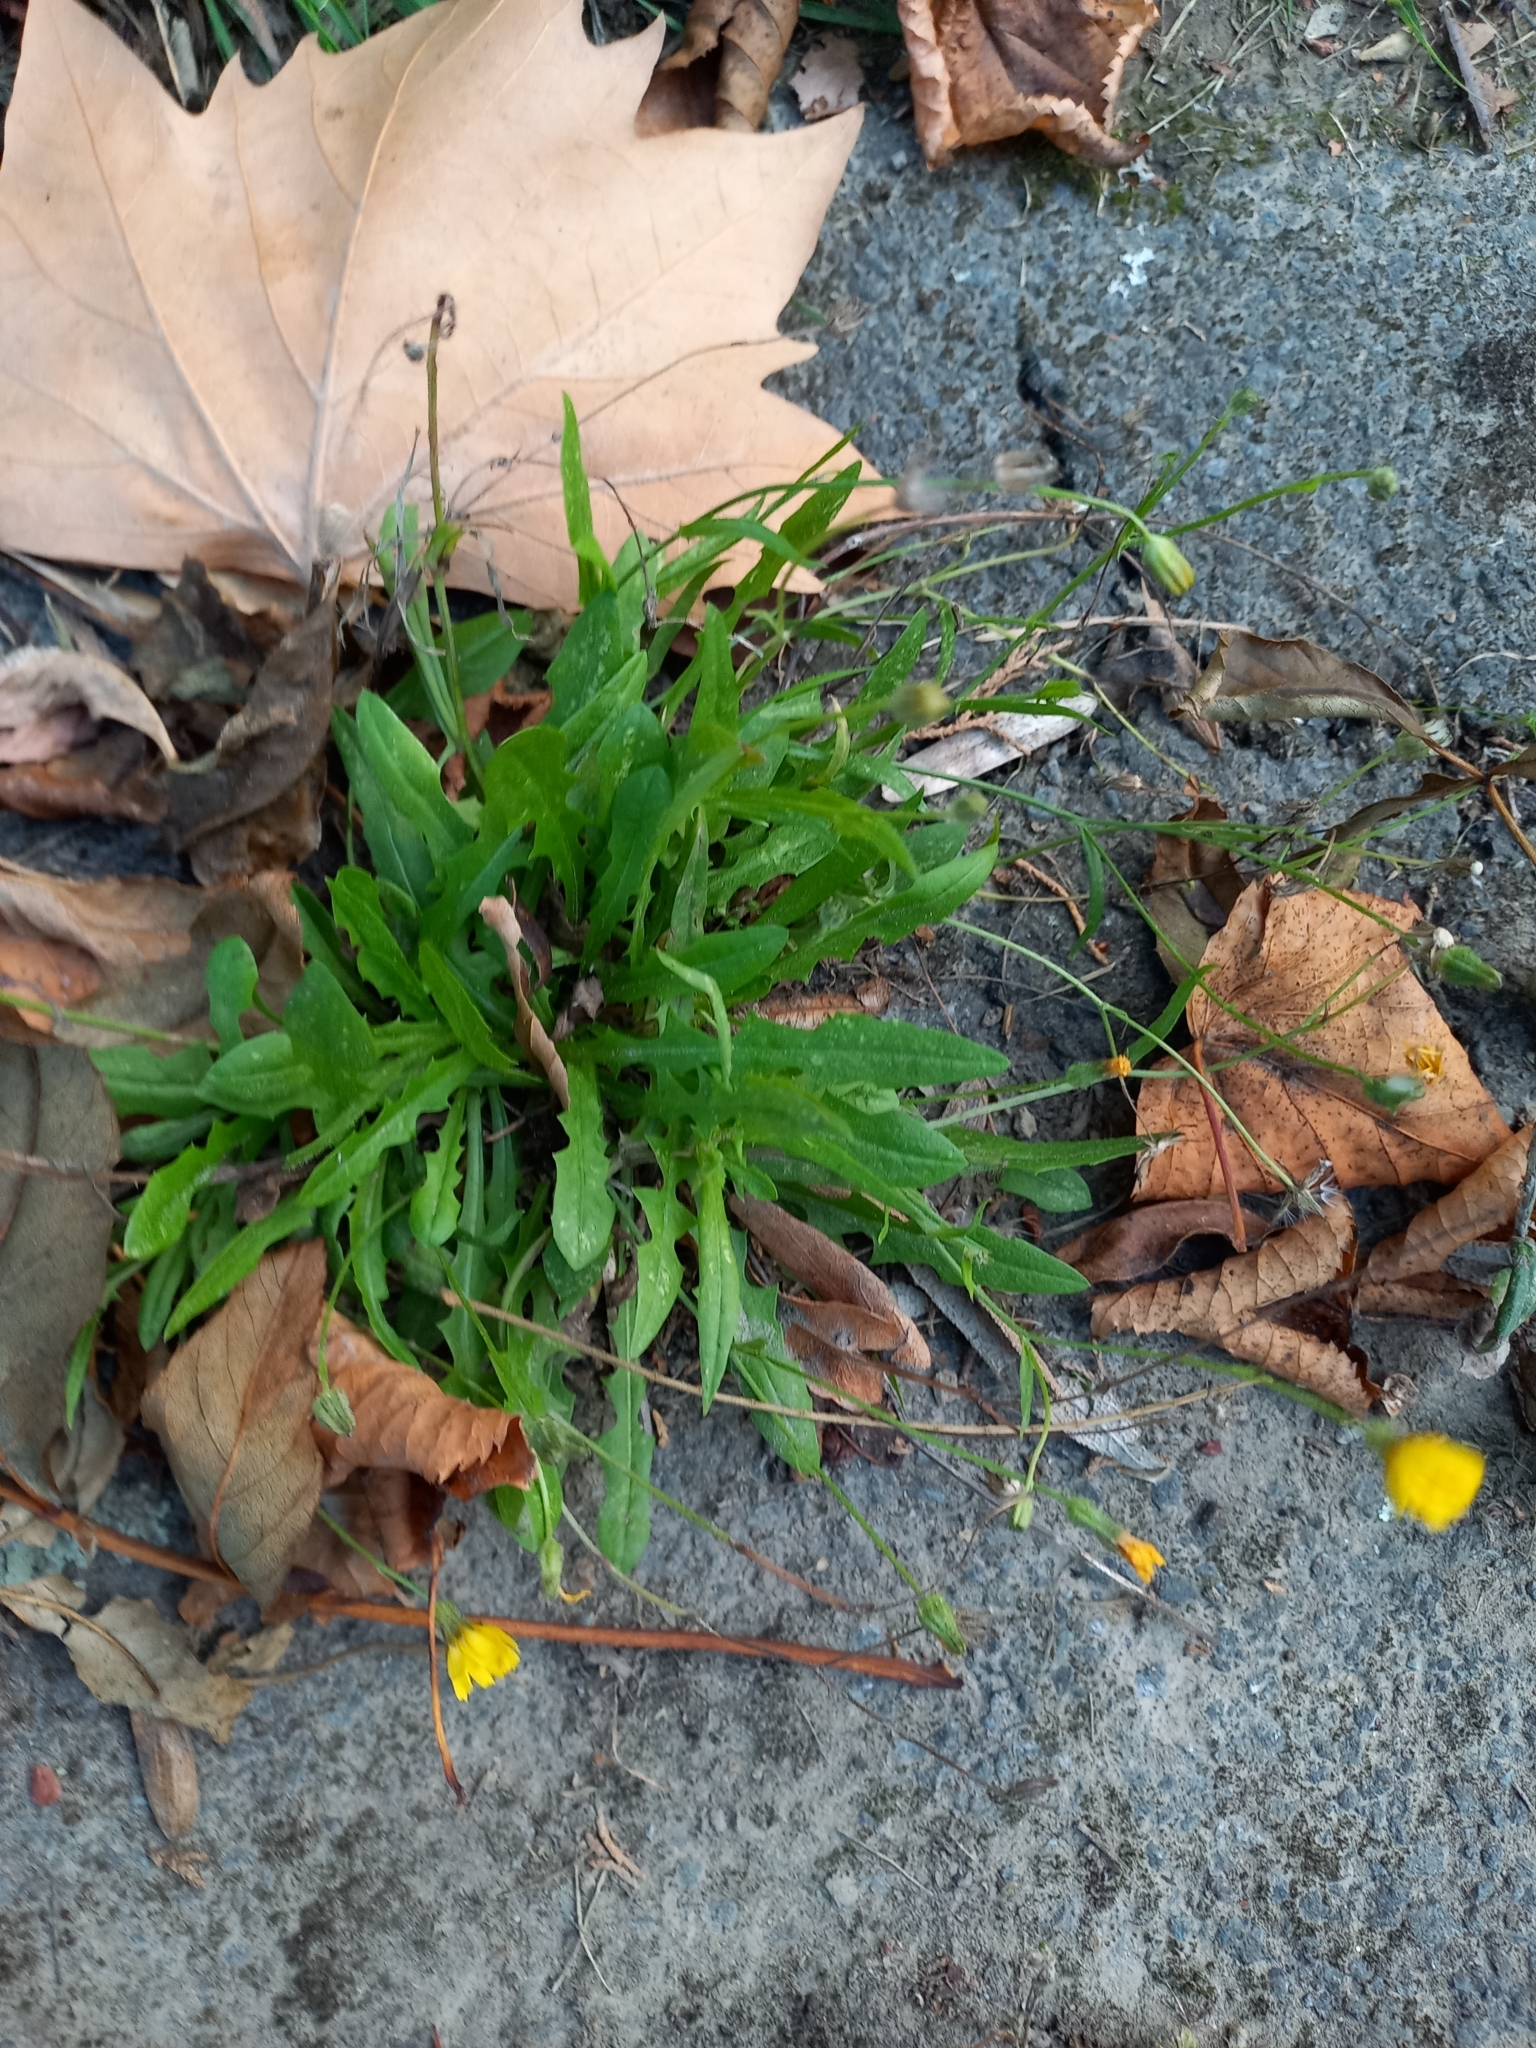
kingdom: Plantae
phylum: Tracheophyta
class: Magnoliopsida
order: Asterales
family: Asteraceae
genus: Crepis
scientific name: Crepis capillaris
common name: Smooth hawksbeard
